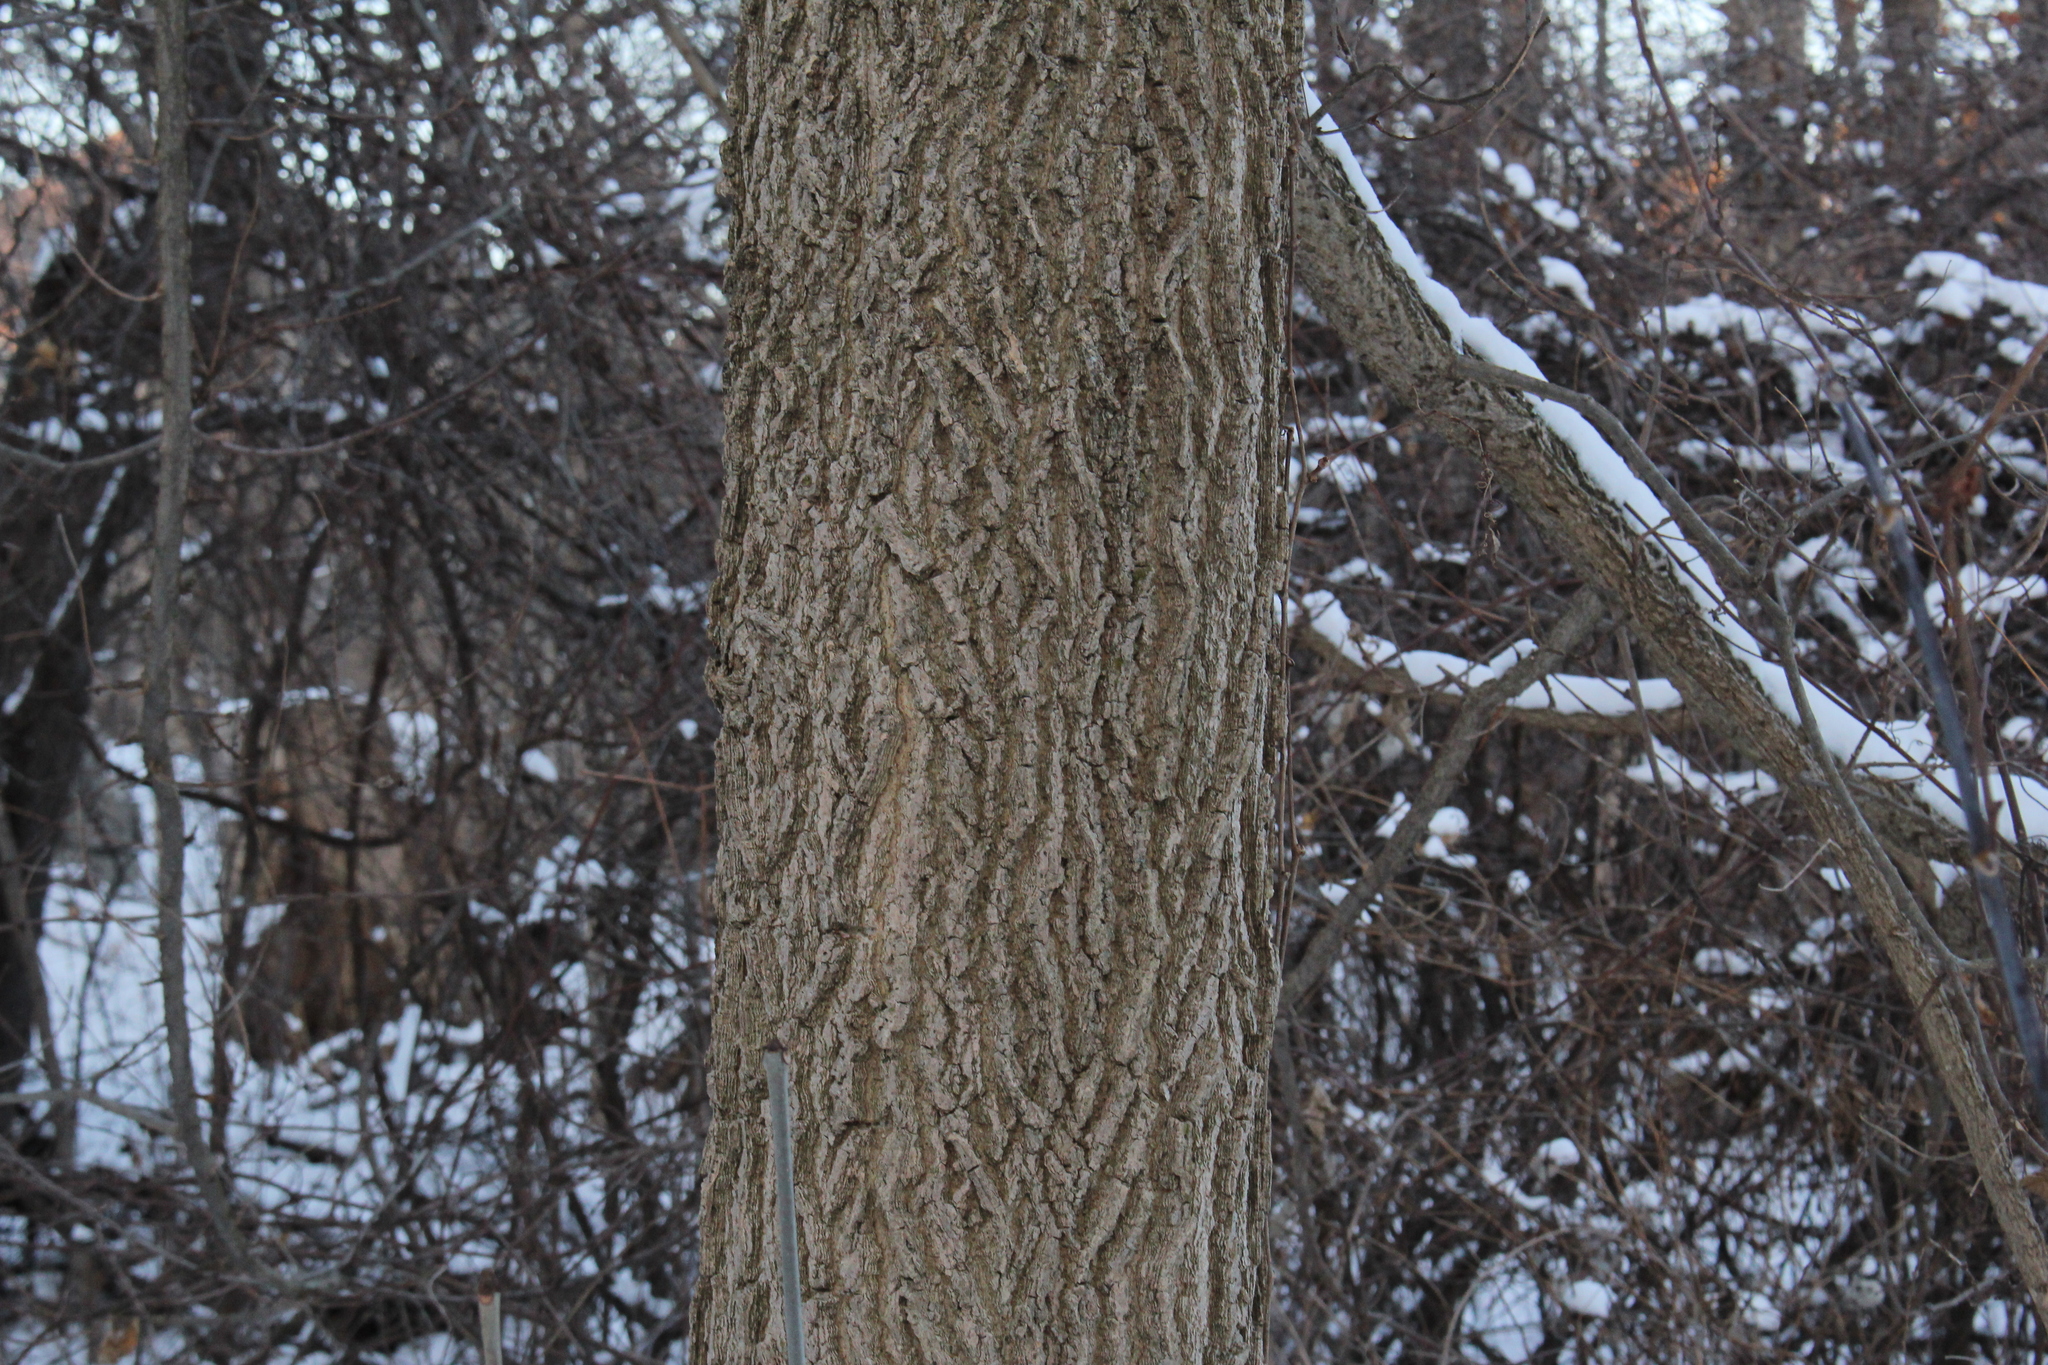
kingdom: Plantae
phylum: Tracheophyta
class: Magnoliopsida
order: Rosales
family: Cannabaceae
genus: Celtis
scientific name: Celtis occidentalis
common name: Common hackberry
